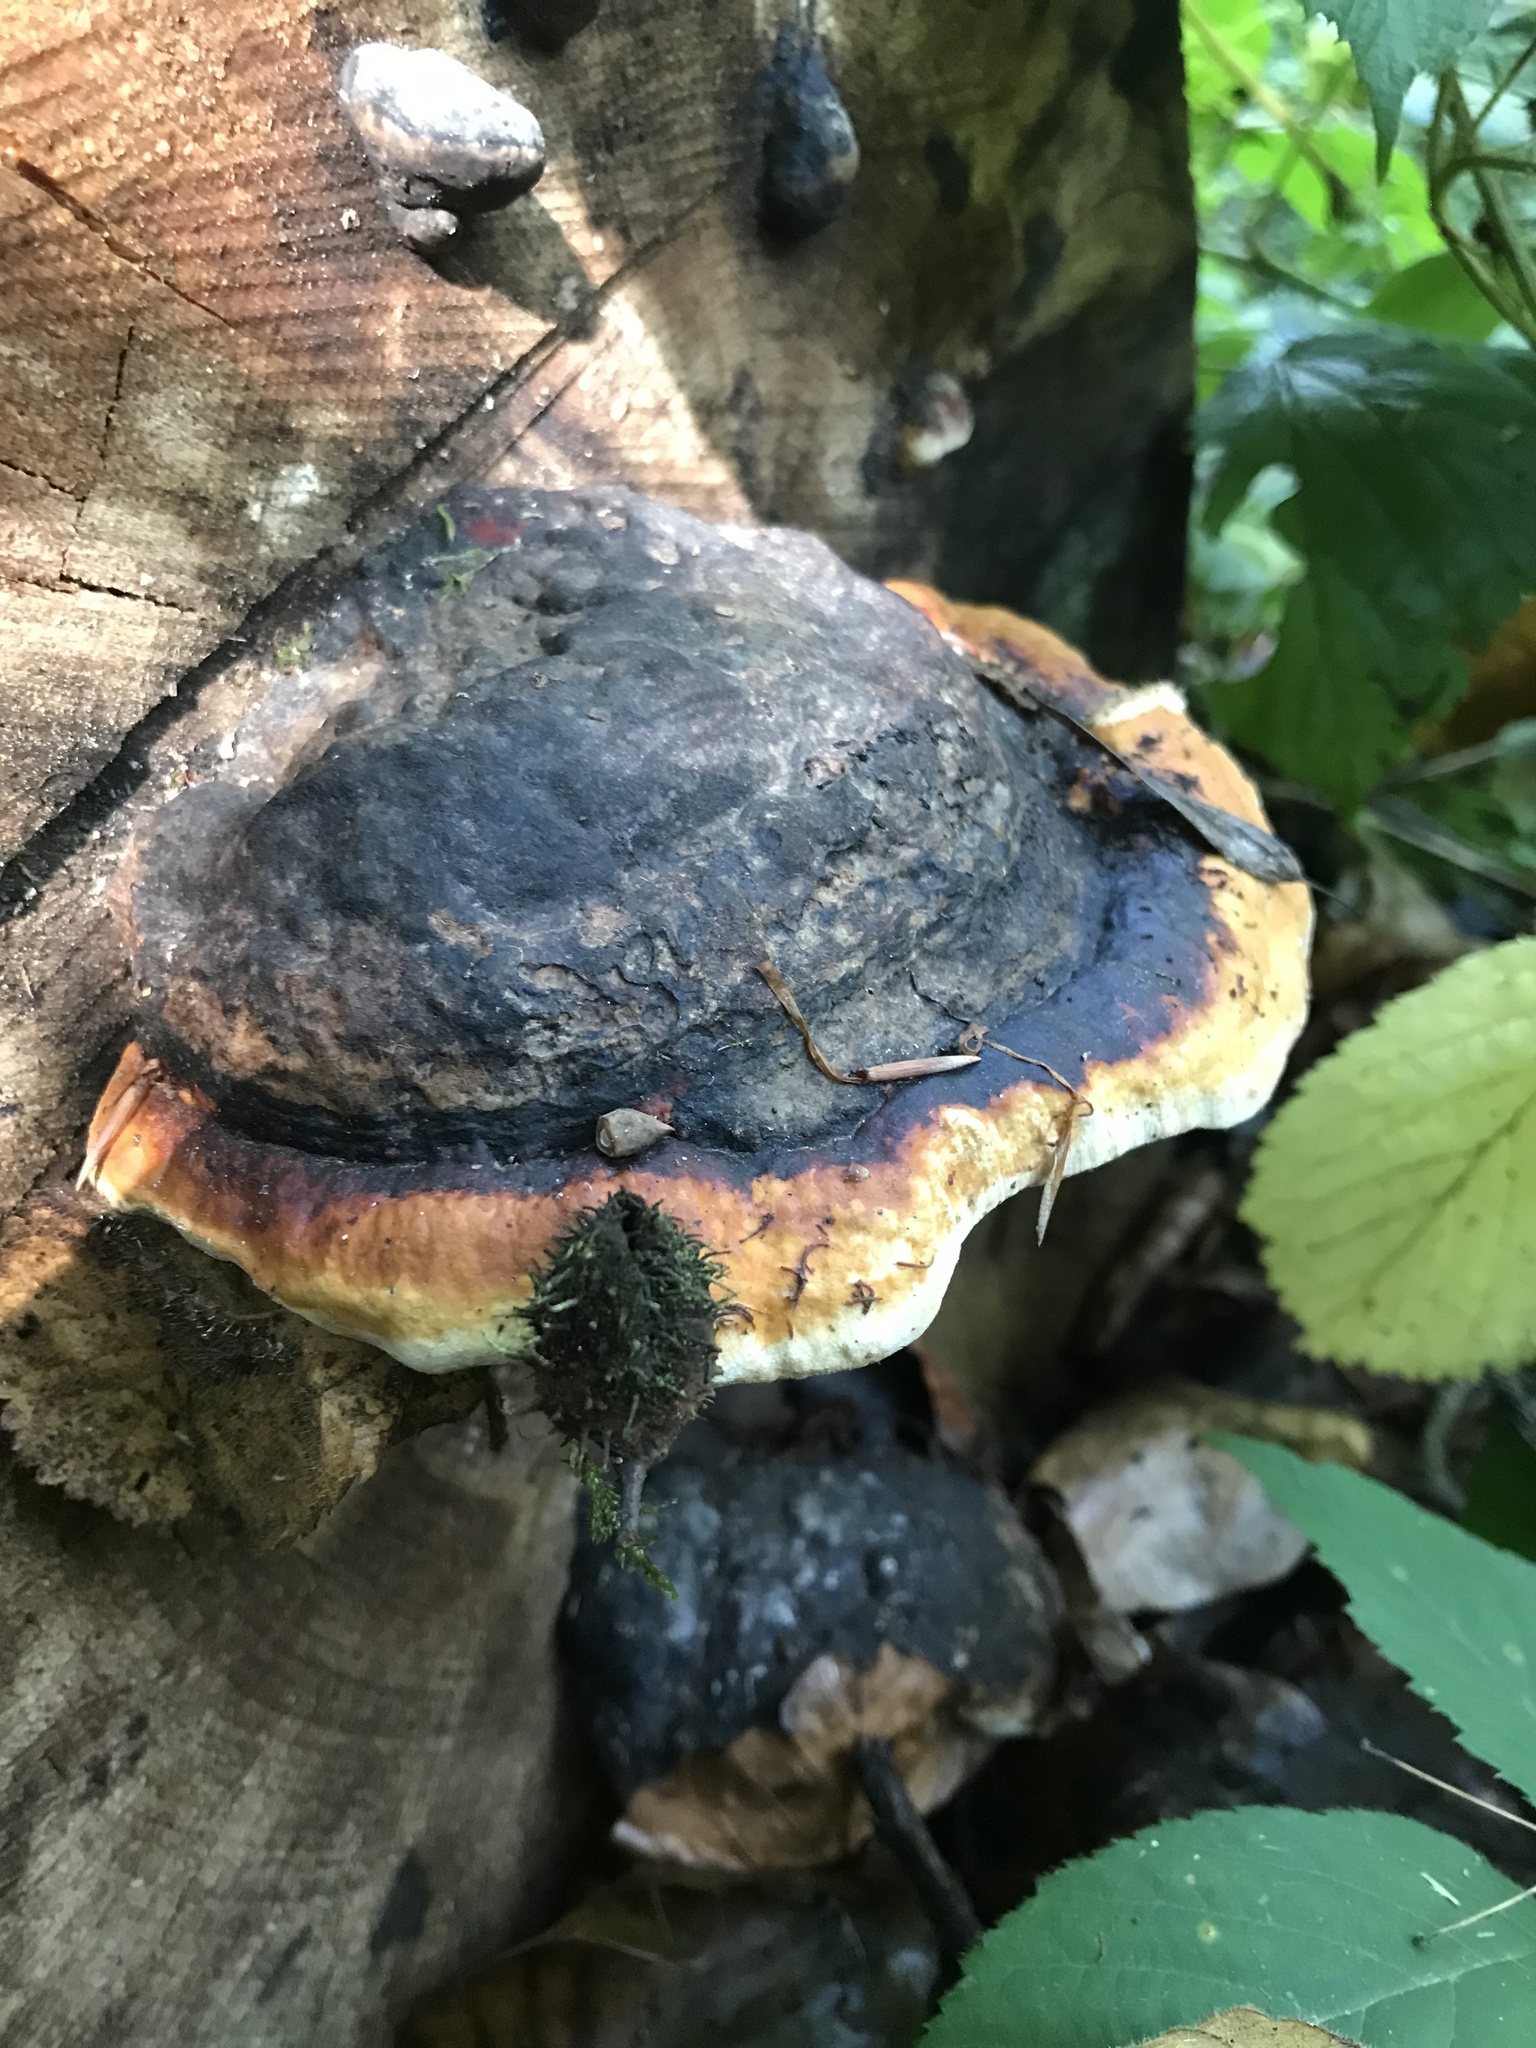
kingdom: Fungi
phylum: Basidiomycota
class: Agaricomycetes
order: Polyporales
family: Fomitopsidaceae
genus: Fomitopsis
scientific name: Fomitopsis pinicola
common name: Red-belted bracket
